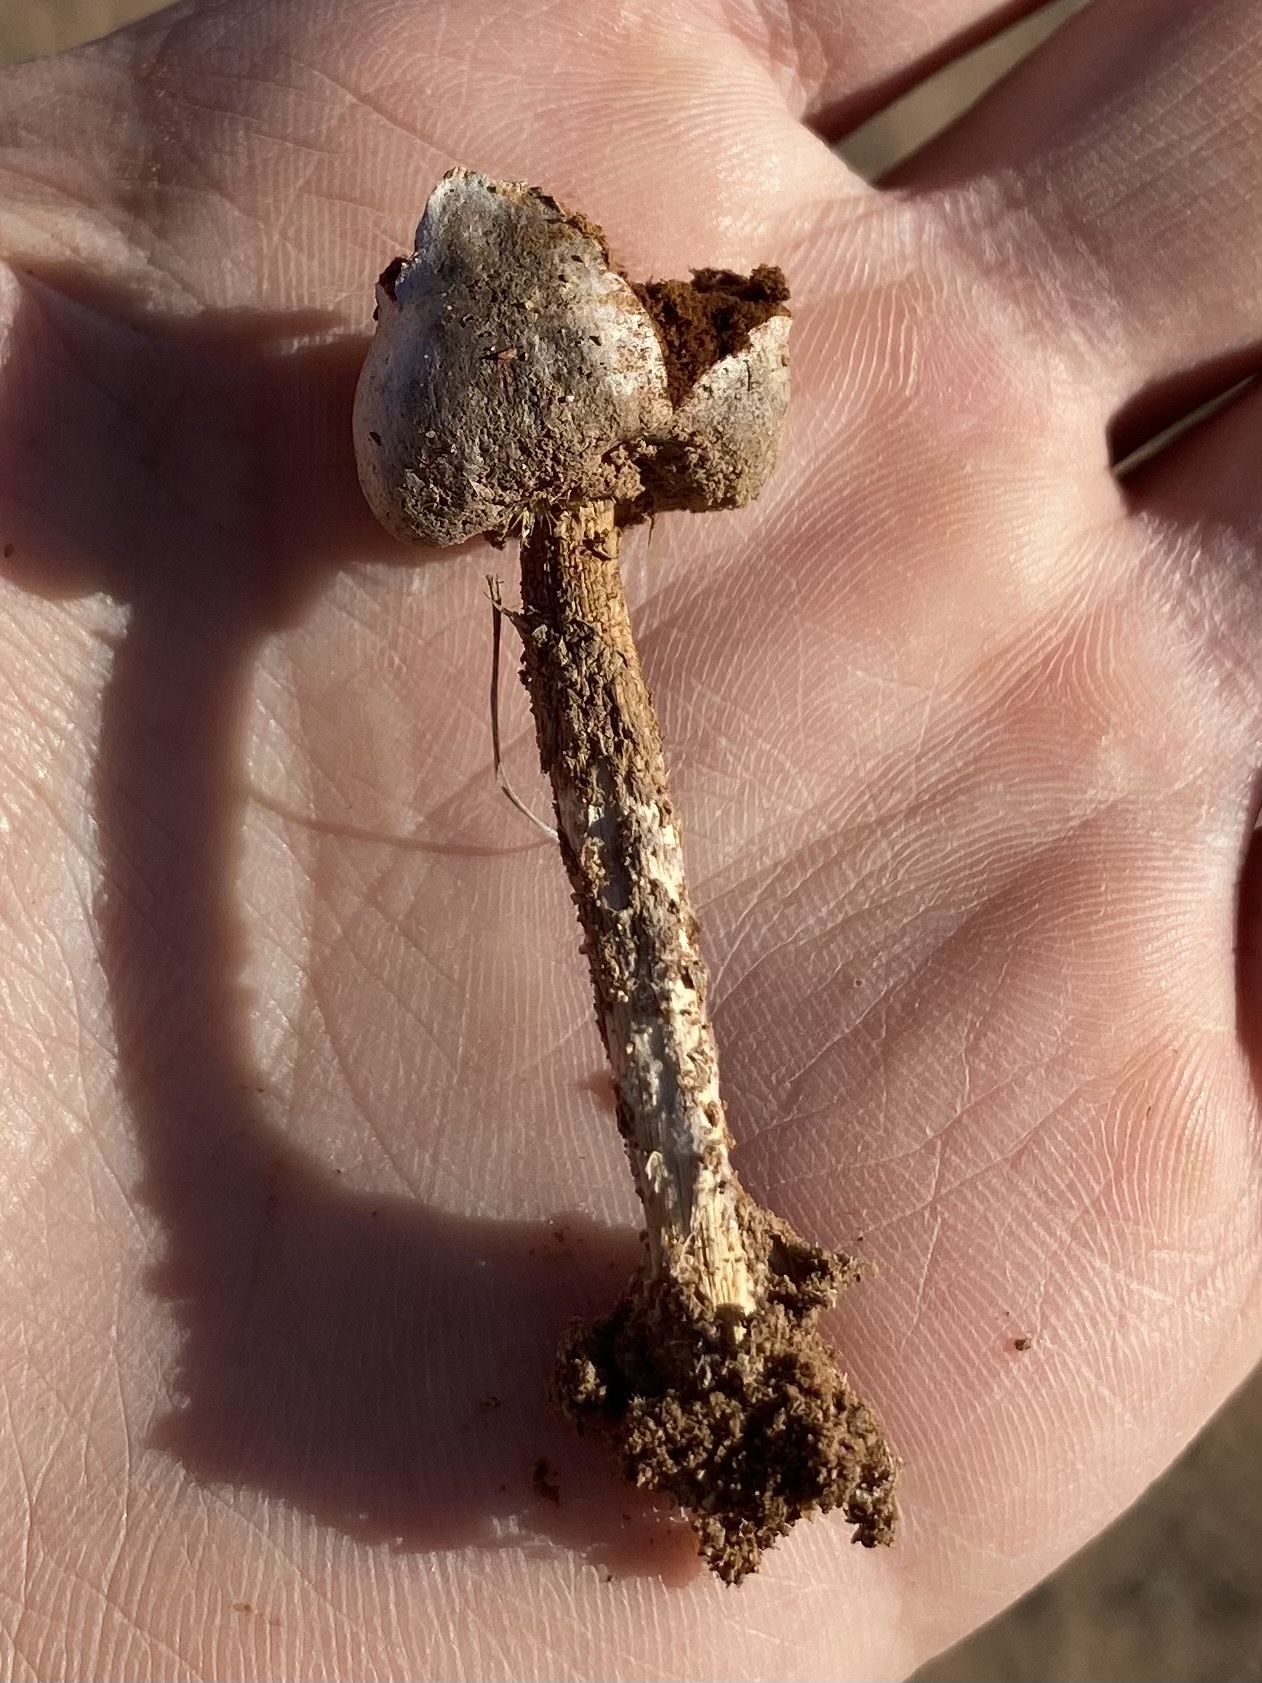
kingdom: Fungi
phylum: Basidiomycota
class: Agaricomycetes
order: Agaricales
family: Agaricaceae
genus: Schizostoma
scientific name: Schizostoma laceratum
